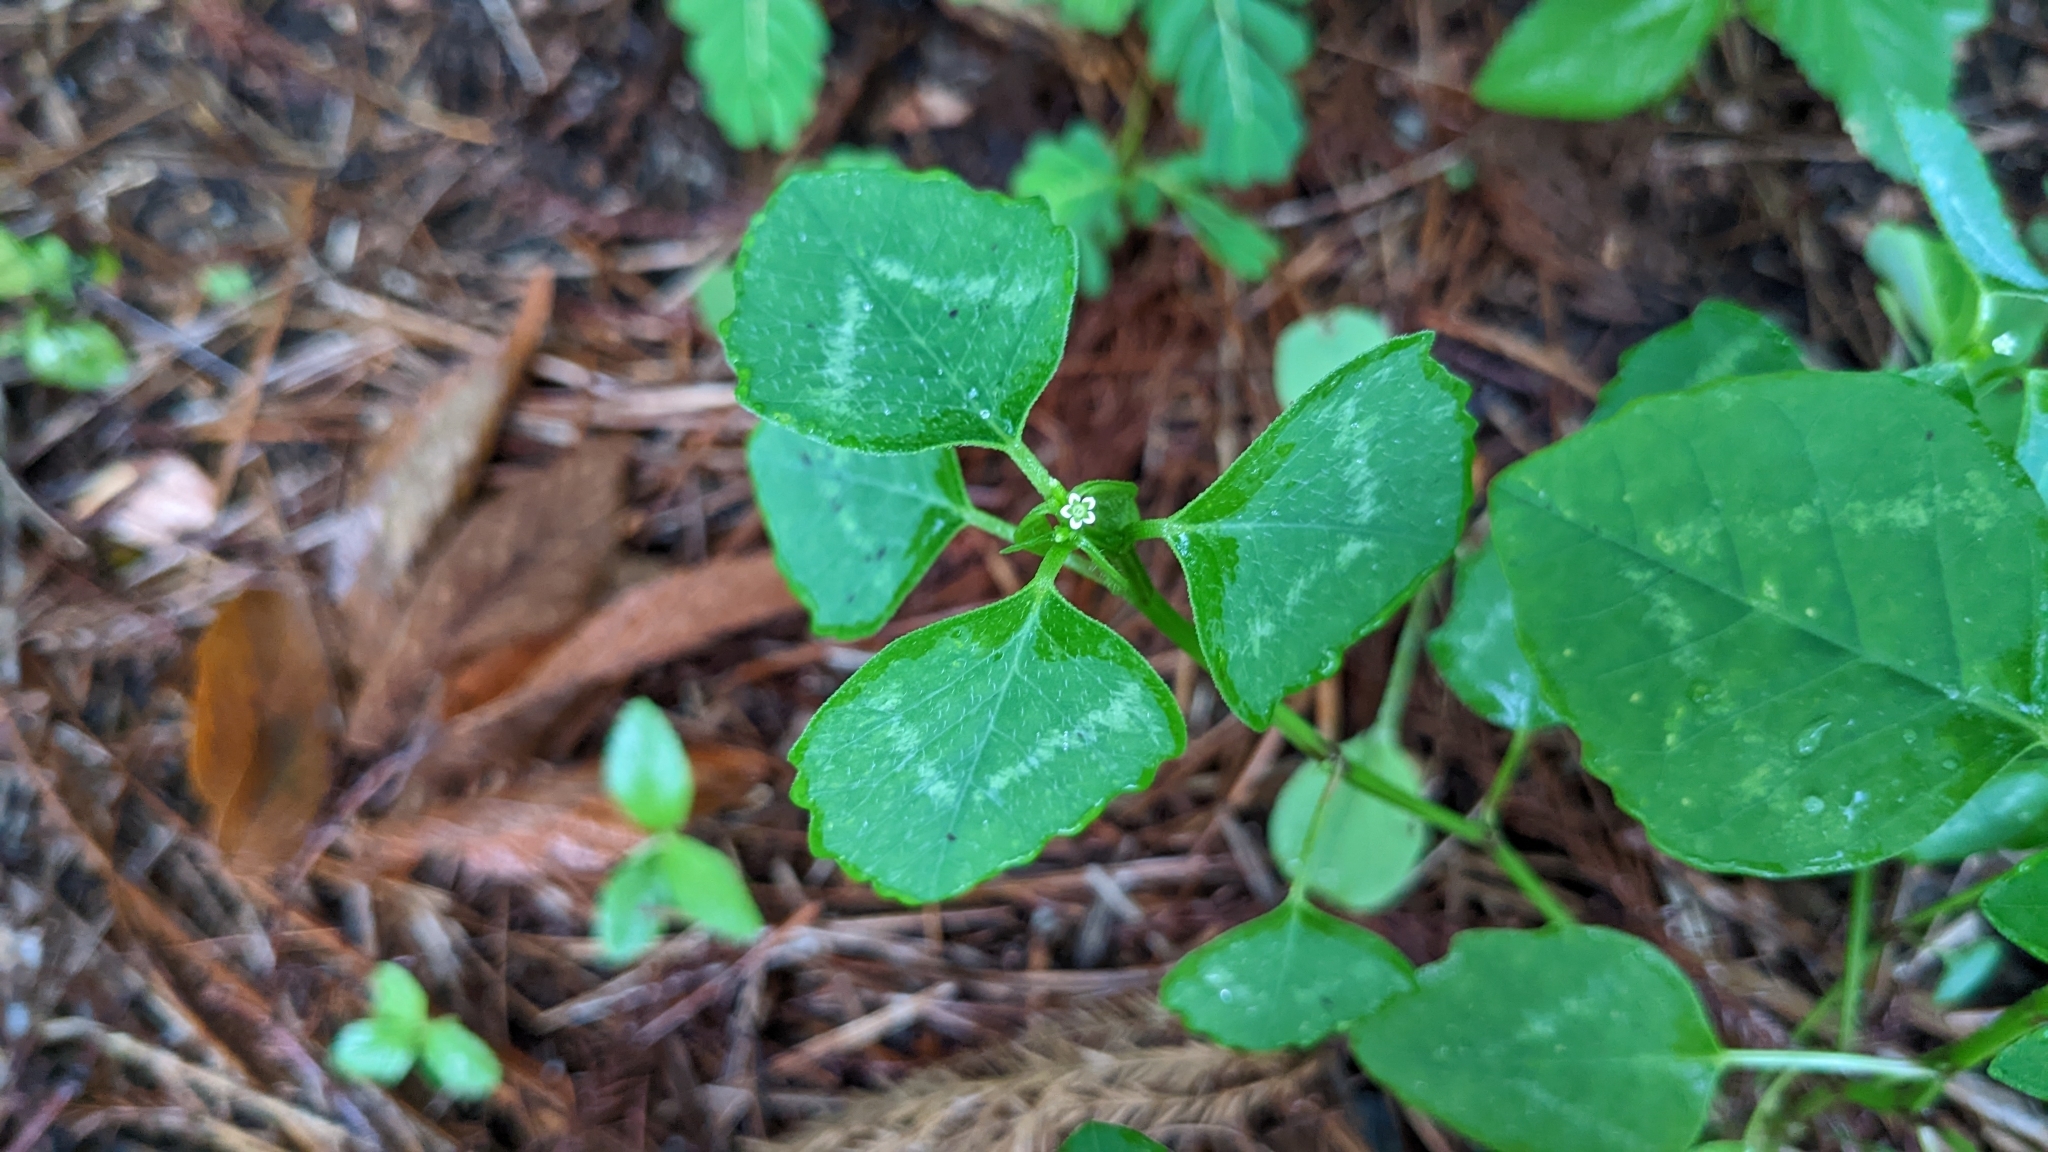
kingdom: Plantae
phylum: Tracheophyta
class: Magnoliopsida
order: Malpighiales
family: Euphorbiaceae
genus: Euphorbia
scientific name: Euphorbia graminea
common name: Grassleaf spurge
